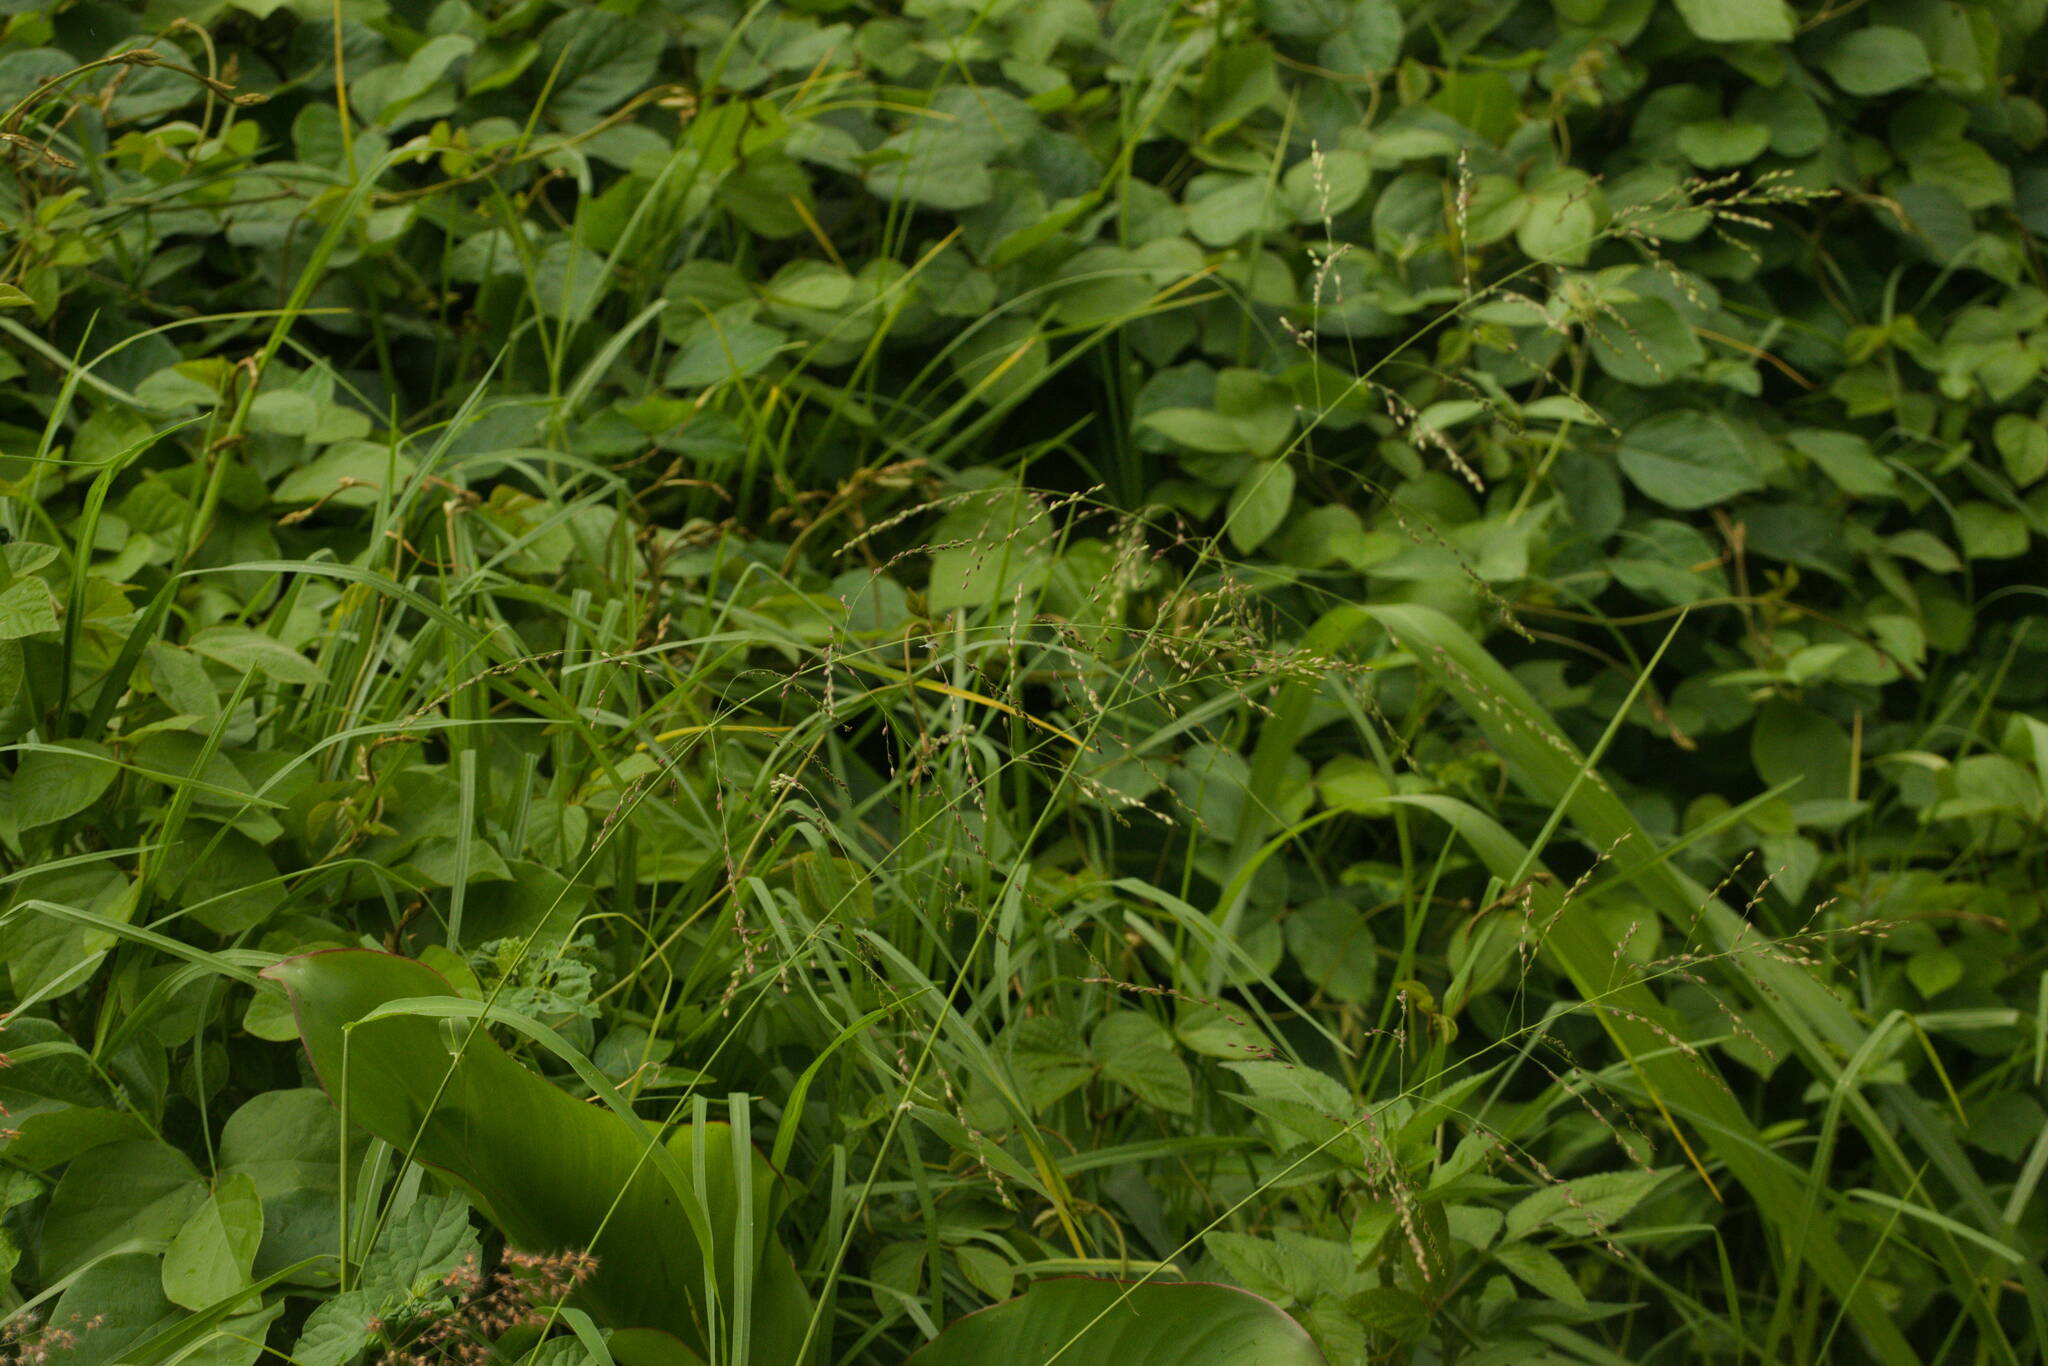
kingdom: Plantae
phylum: Tracheophyta
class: Liliopsida
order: Poales
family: Poaceae
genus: Megathyrsus
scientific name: Megathyrsus maximus
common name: Guineagrass
